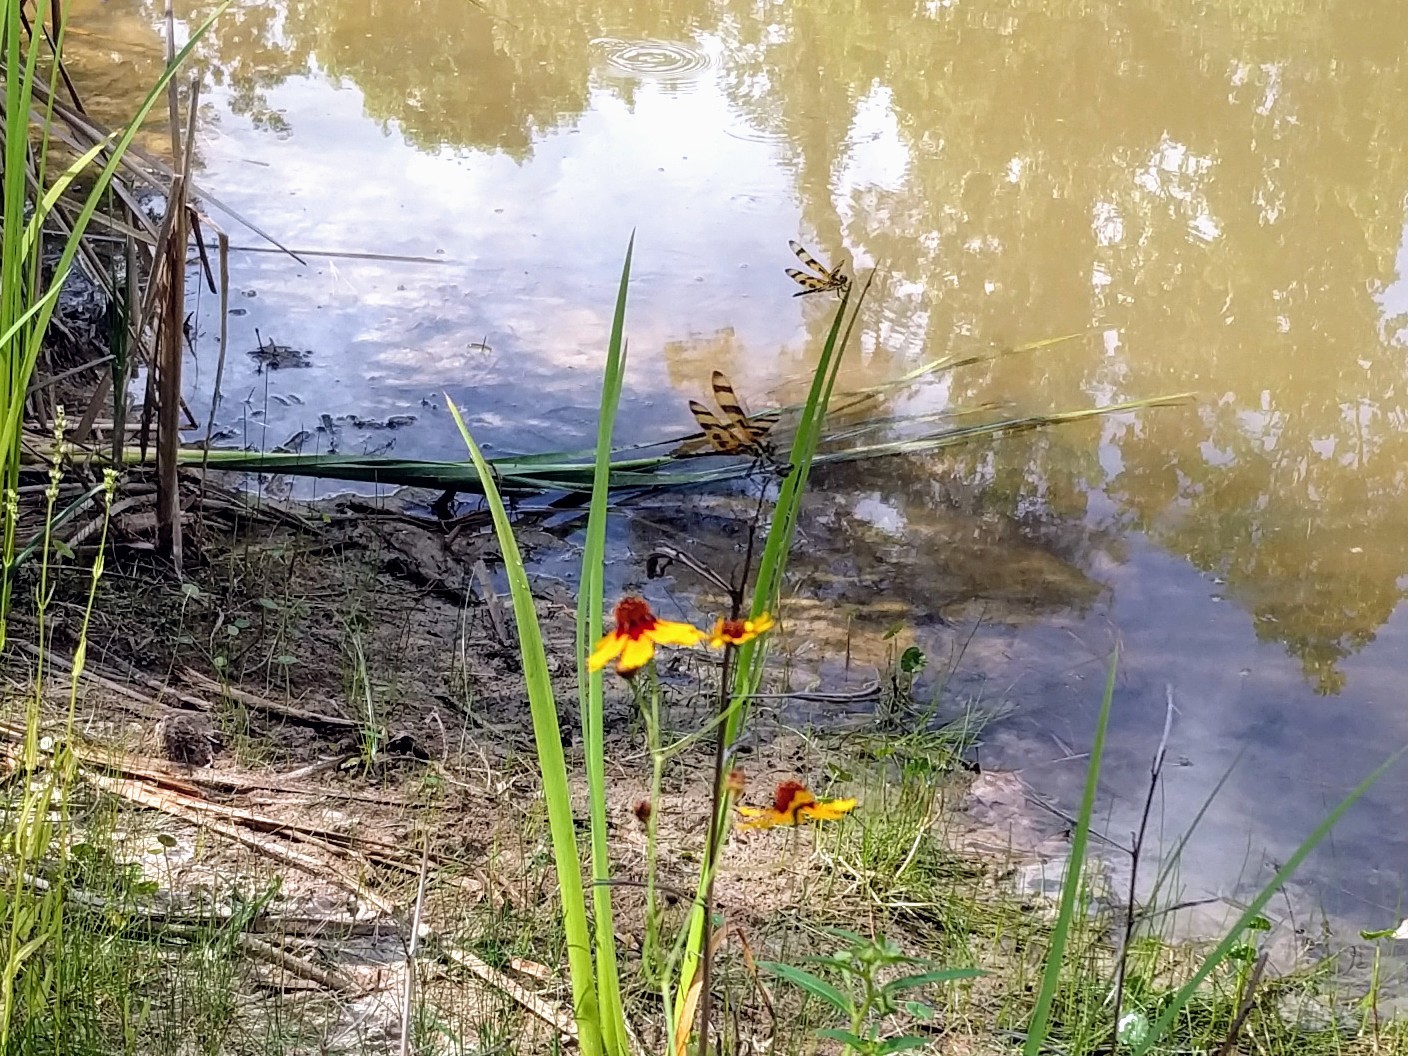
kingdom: Animalia
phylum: Arthropoda
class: Insecta
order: Odonata
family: Libellulidae
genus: Celithemis
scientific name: Celithemis eponina
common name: Halloween pennant
